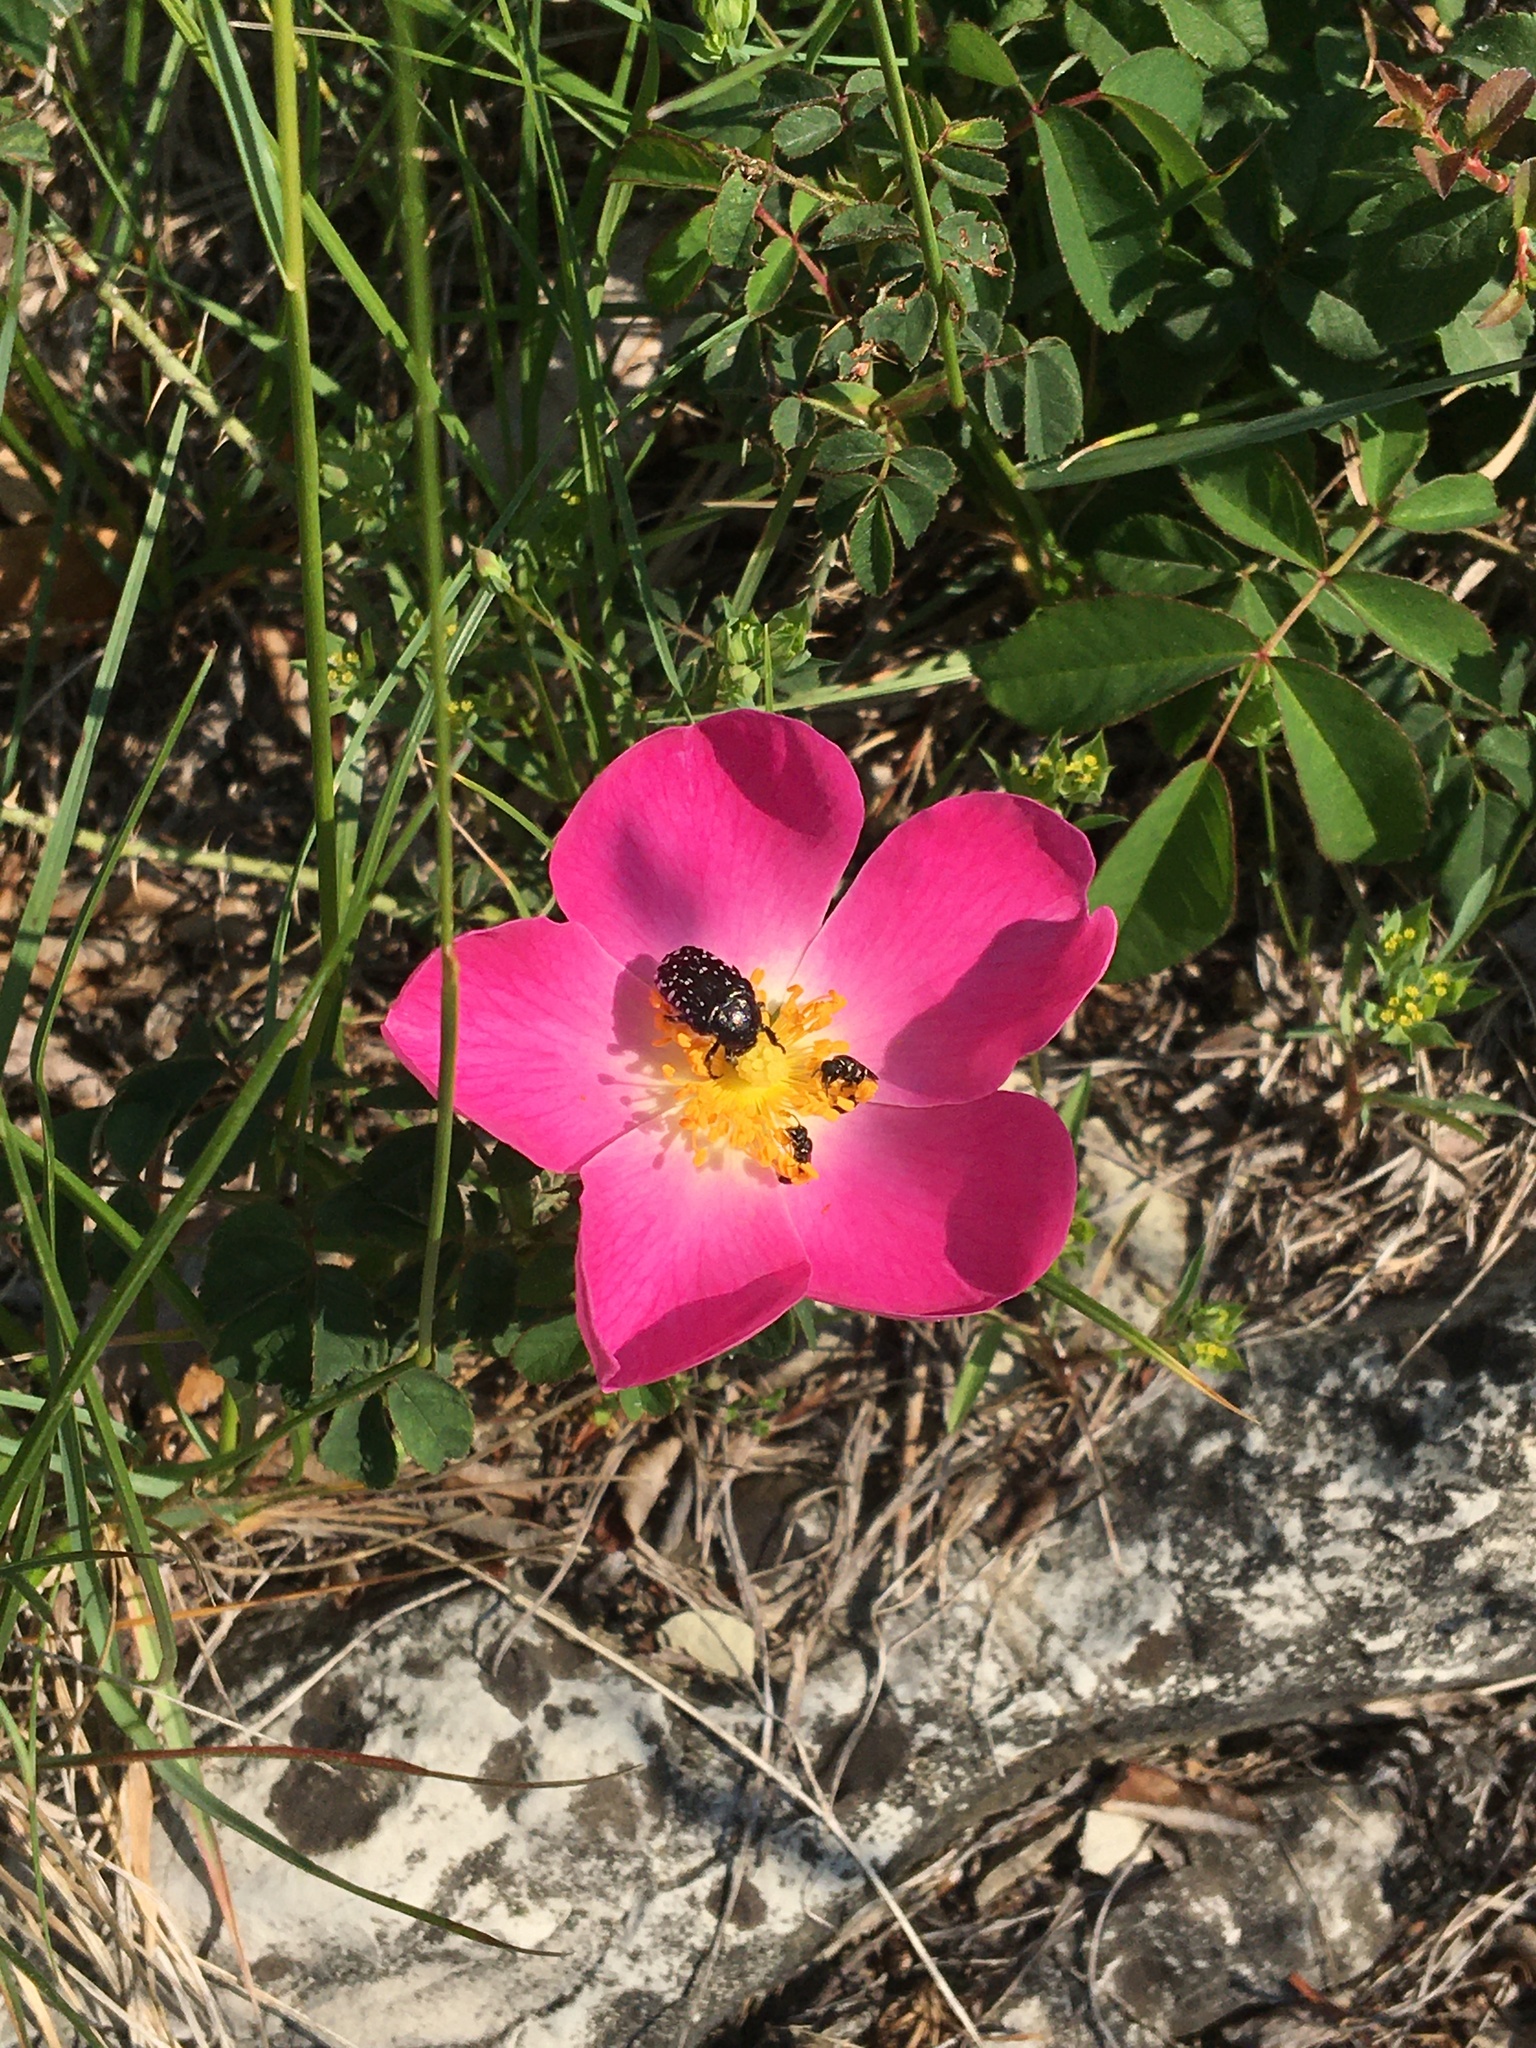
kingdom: Plantae
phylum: Tracheophyta
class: Magnoliopsida
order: Rosales
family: Rosaceae
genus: Rosa
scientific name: Rosa canina
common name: Dog rose
